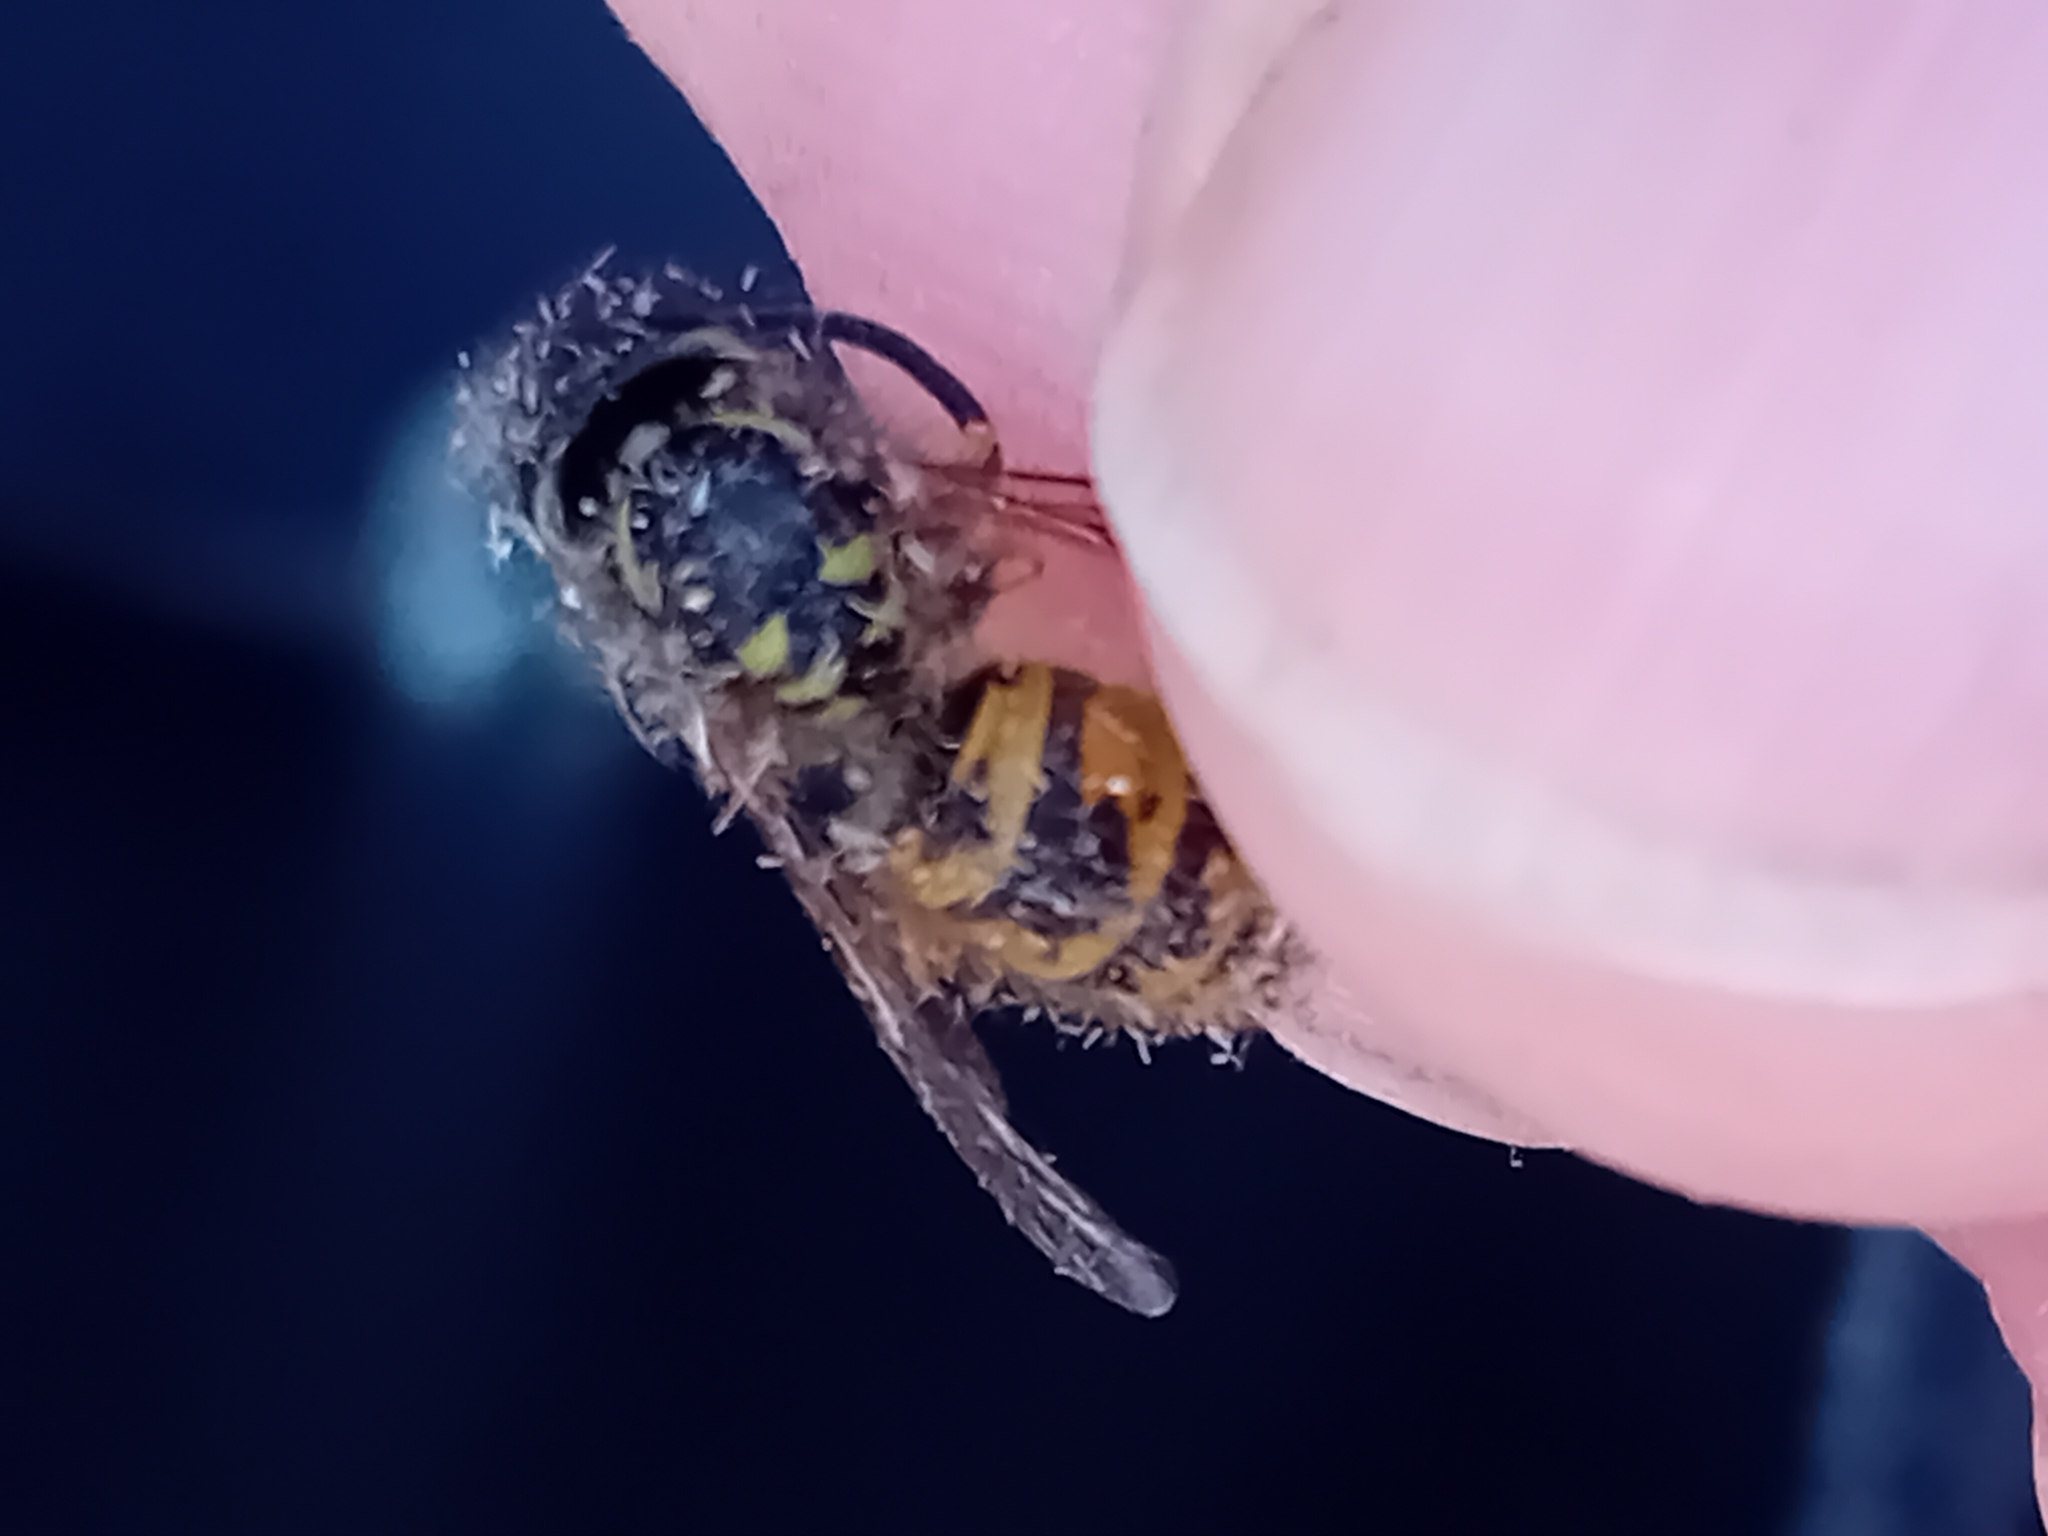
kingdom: Animalia
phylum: Arthropoda
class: Insecta
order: Hymenoptera
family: Vespidae
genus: Vespula
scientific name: Vespula vulgaris
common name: Common wasp
